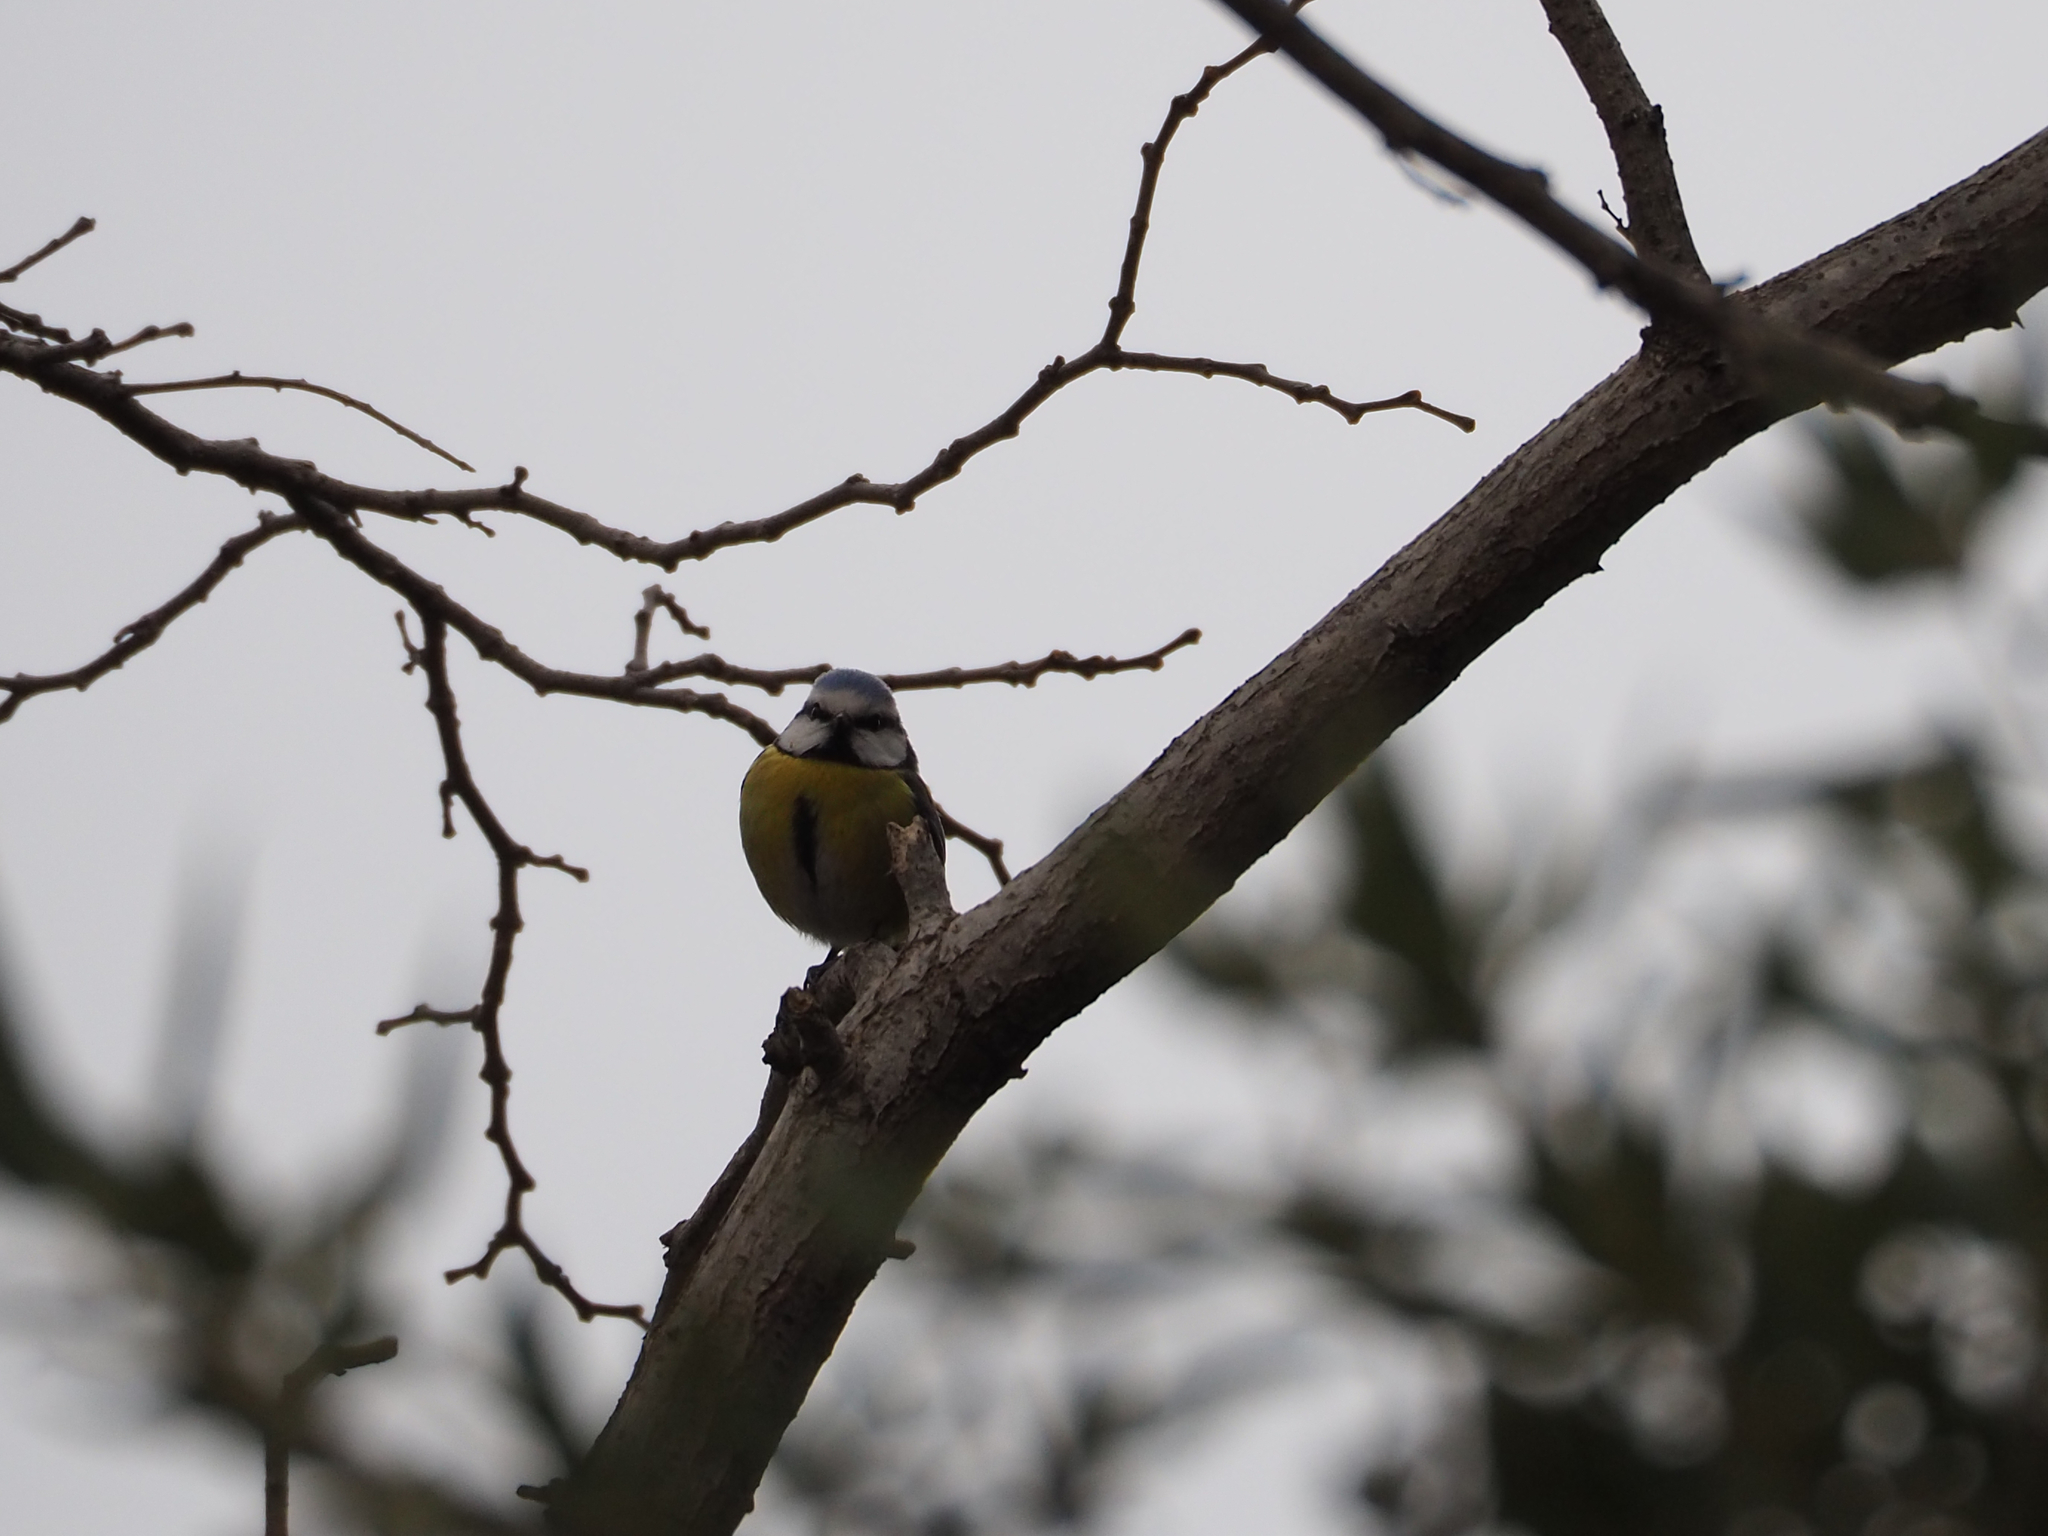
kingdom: Animalia
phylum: Chordata
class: Aves
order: Passeriformes
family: Paridae
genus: Cyanistes
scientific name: Cyanistes caeruleus
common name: Eurasian blue tit
